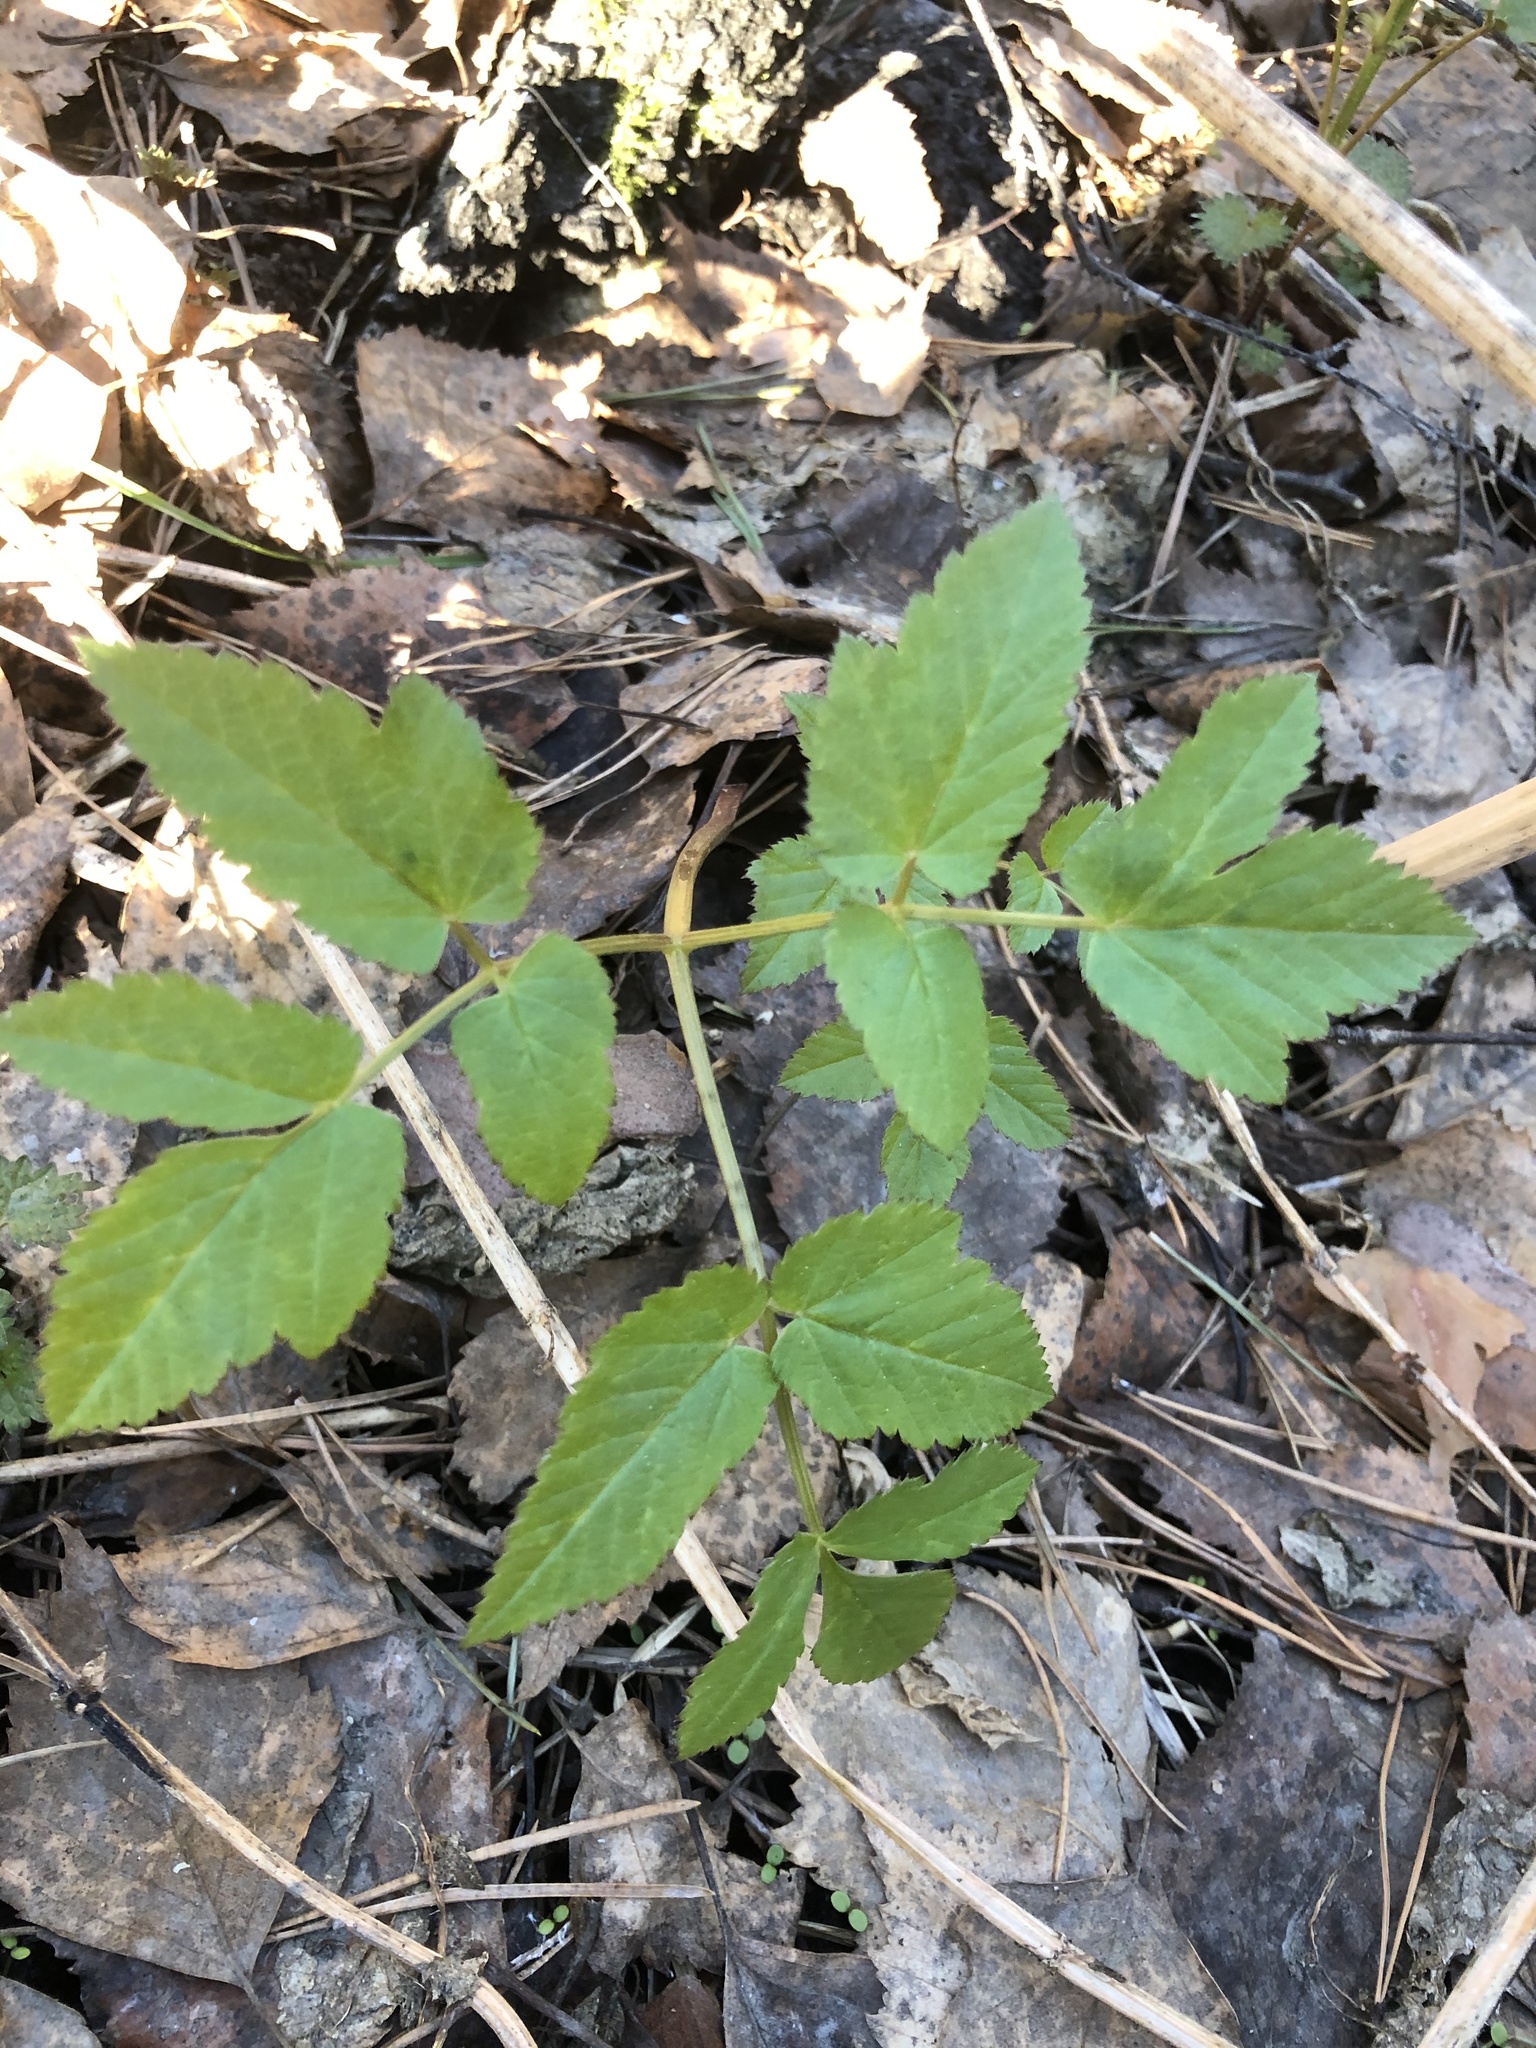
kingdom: Plantae
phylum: Tracheophyta
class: Magnoliopsida
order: Apiales
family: Apiaceae
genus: Aegopodium
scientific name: Aegopodium podagraria
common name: Ground-elder
